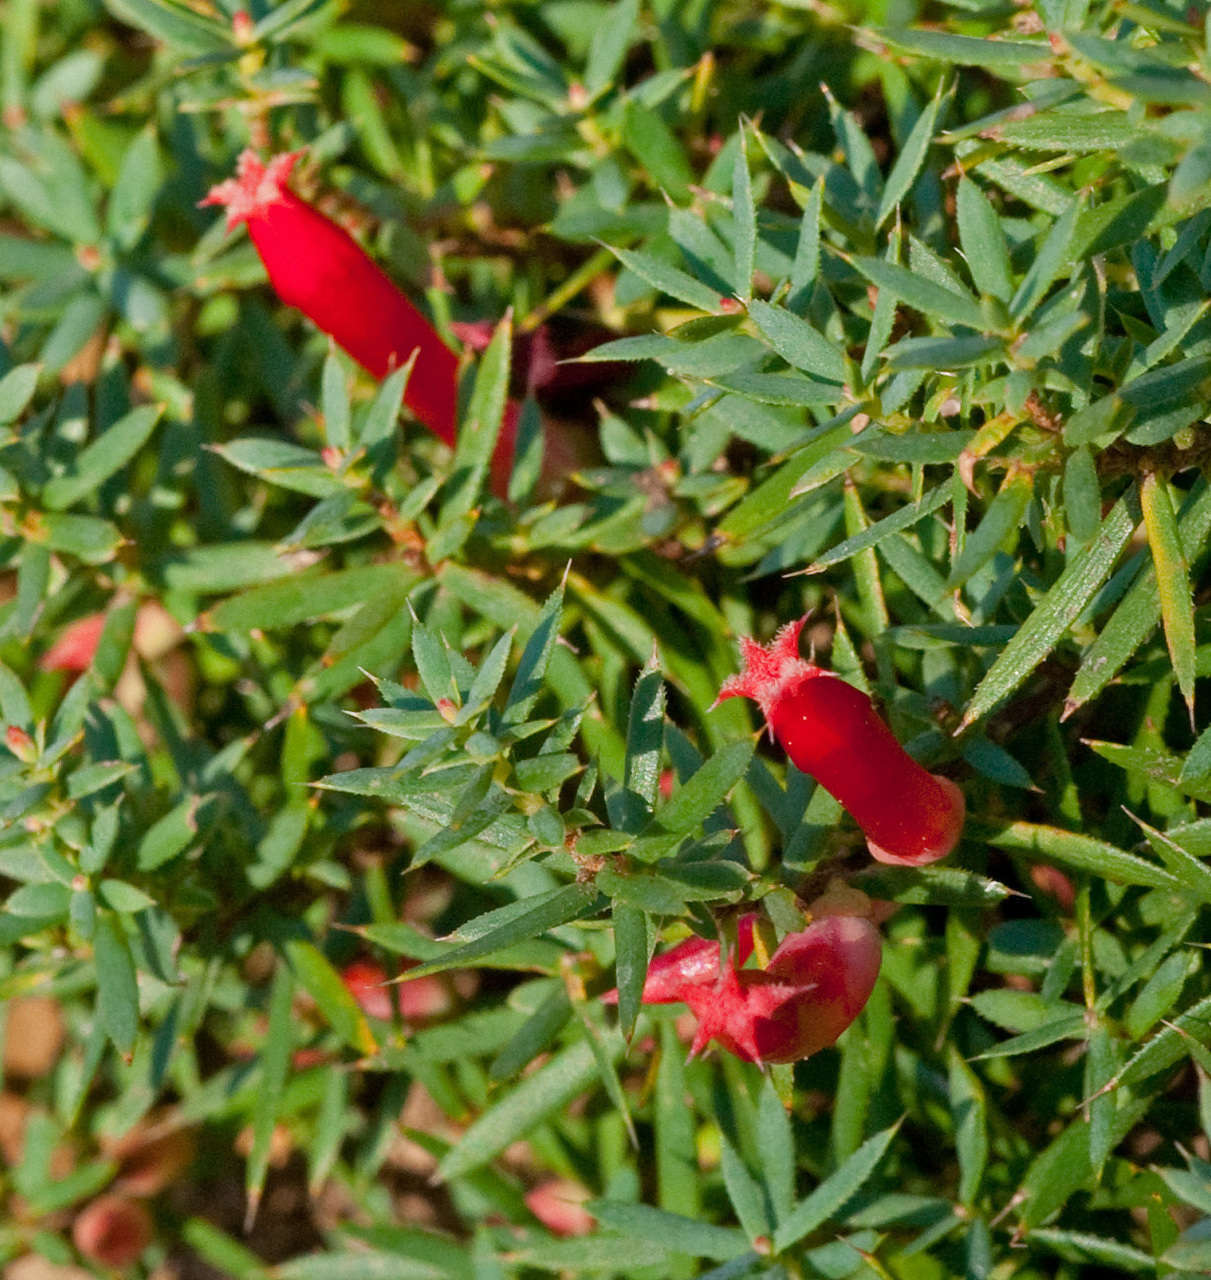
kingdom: Plantae
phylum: Tracheophyta
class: Magnoliopsida
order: Ericales
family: Ericaceae
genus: Styphelia
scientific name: Styphelia humifusa
